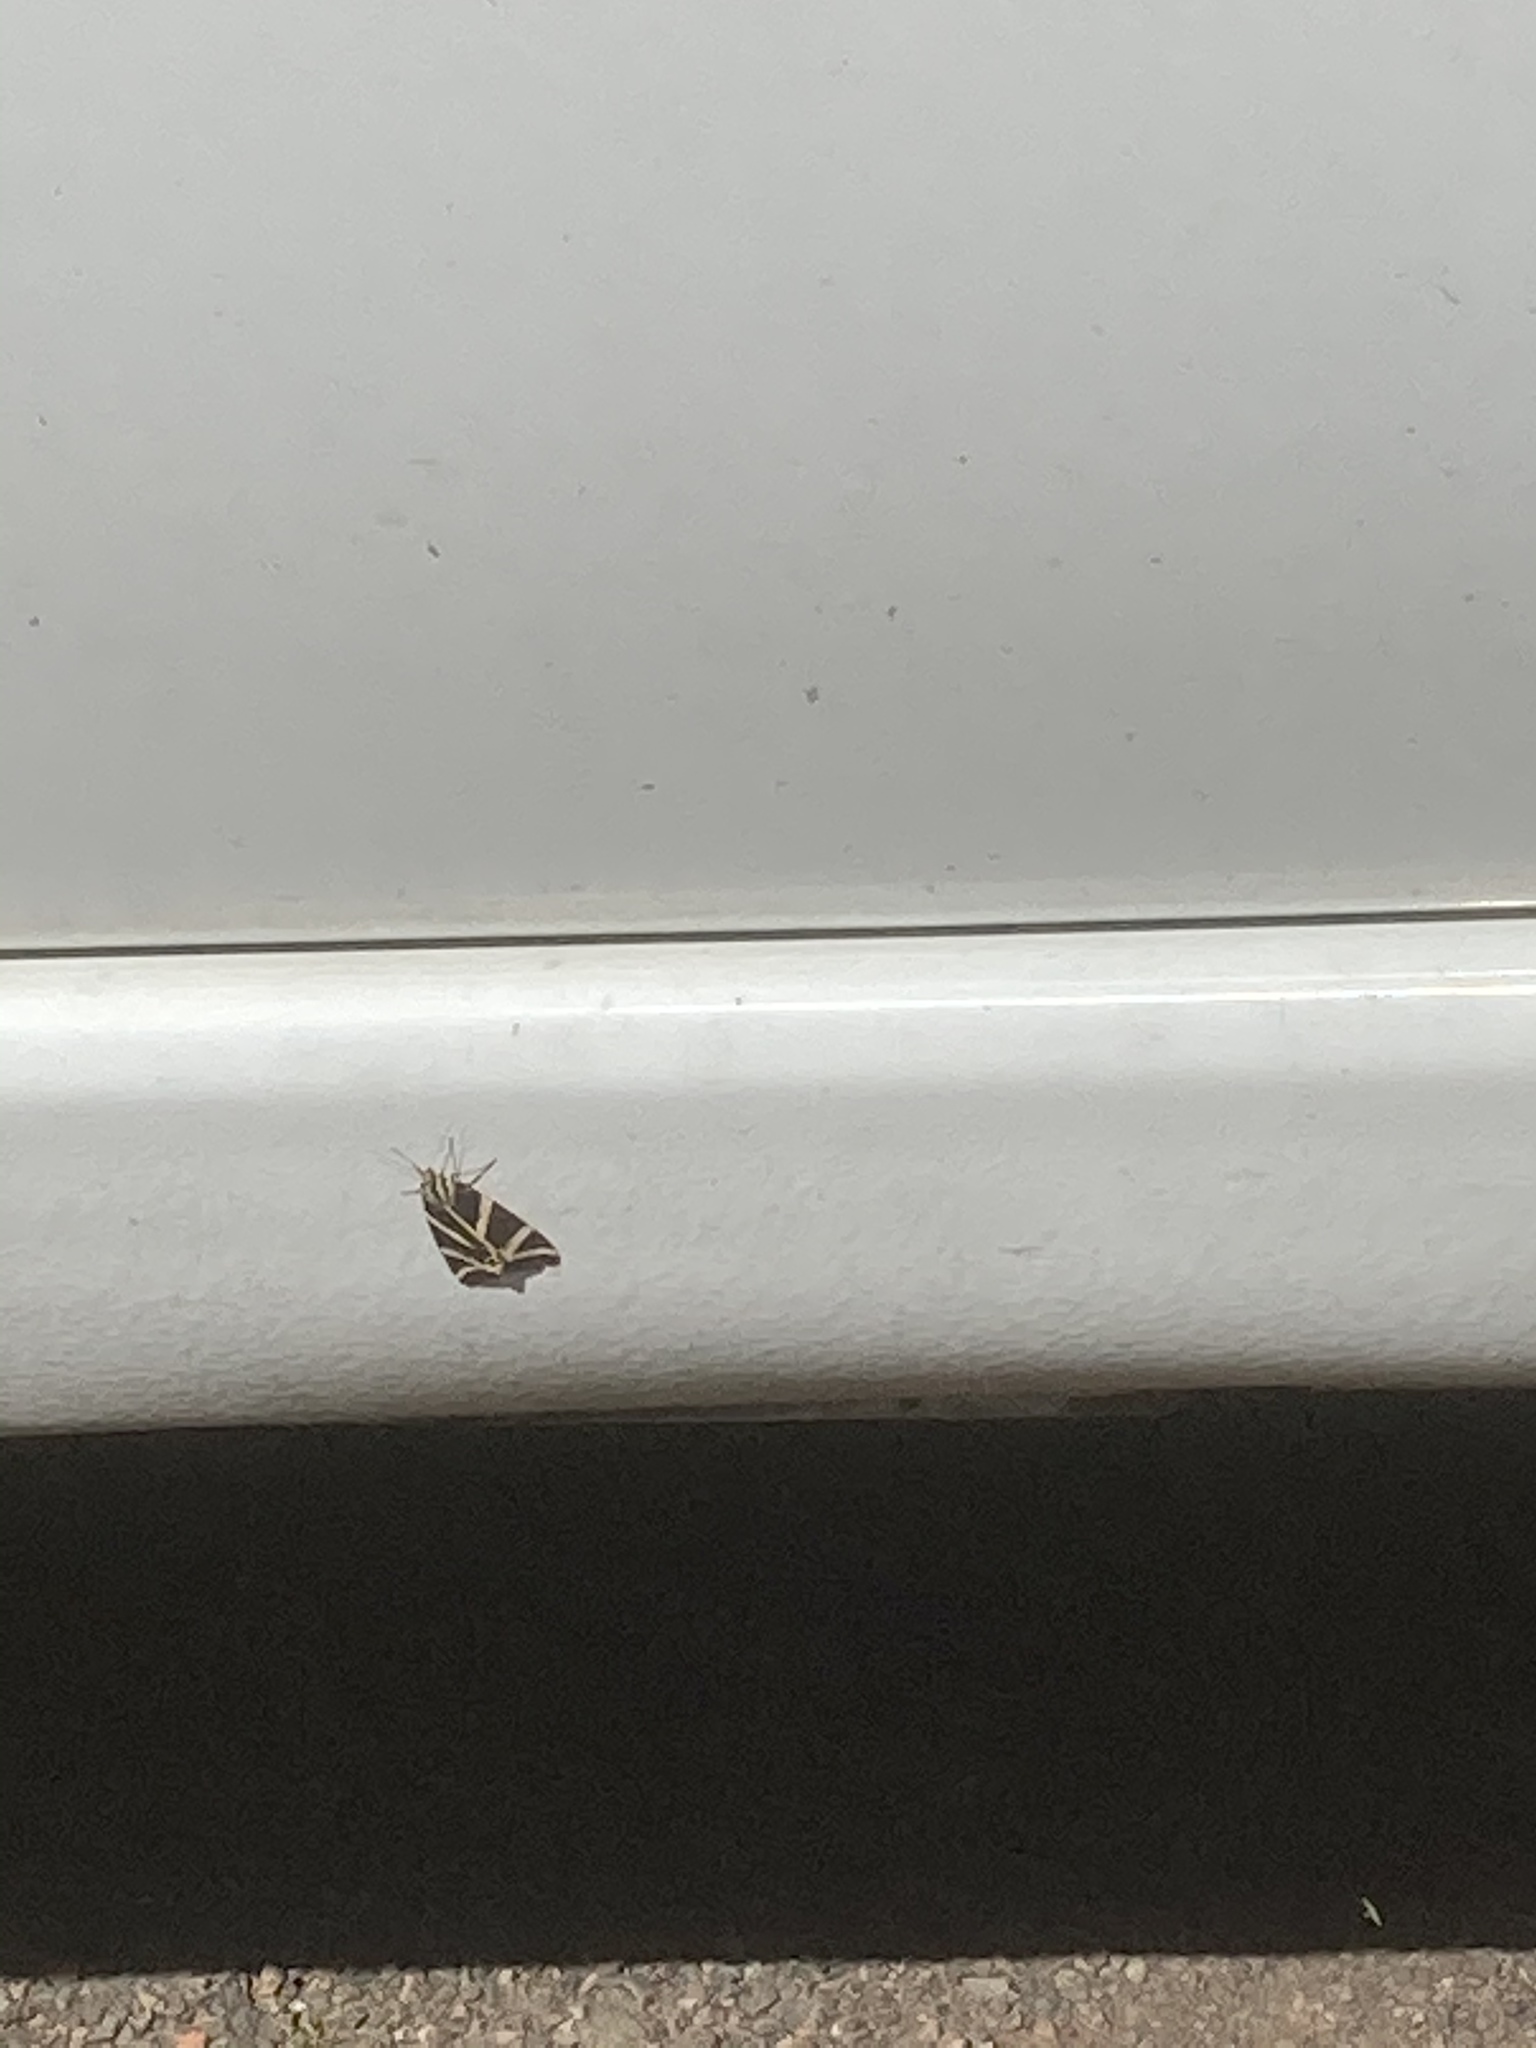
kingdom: Animalia
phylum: Arthropoda
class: Insecta
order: Lepidoptera
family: Erebidae
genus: Euplagia
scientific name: Euplagia quadripunctaria
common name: Jersey tiger
